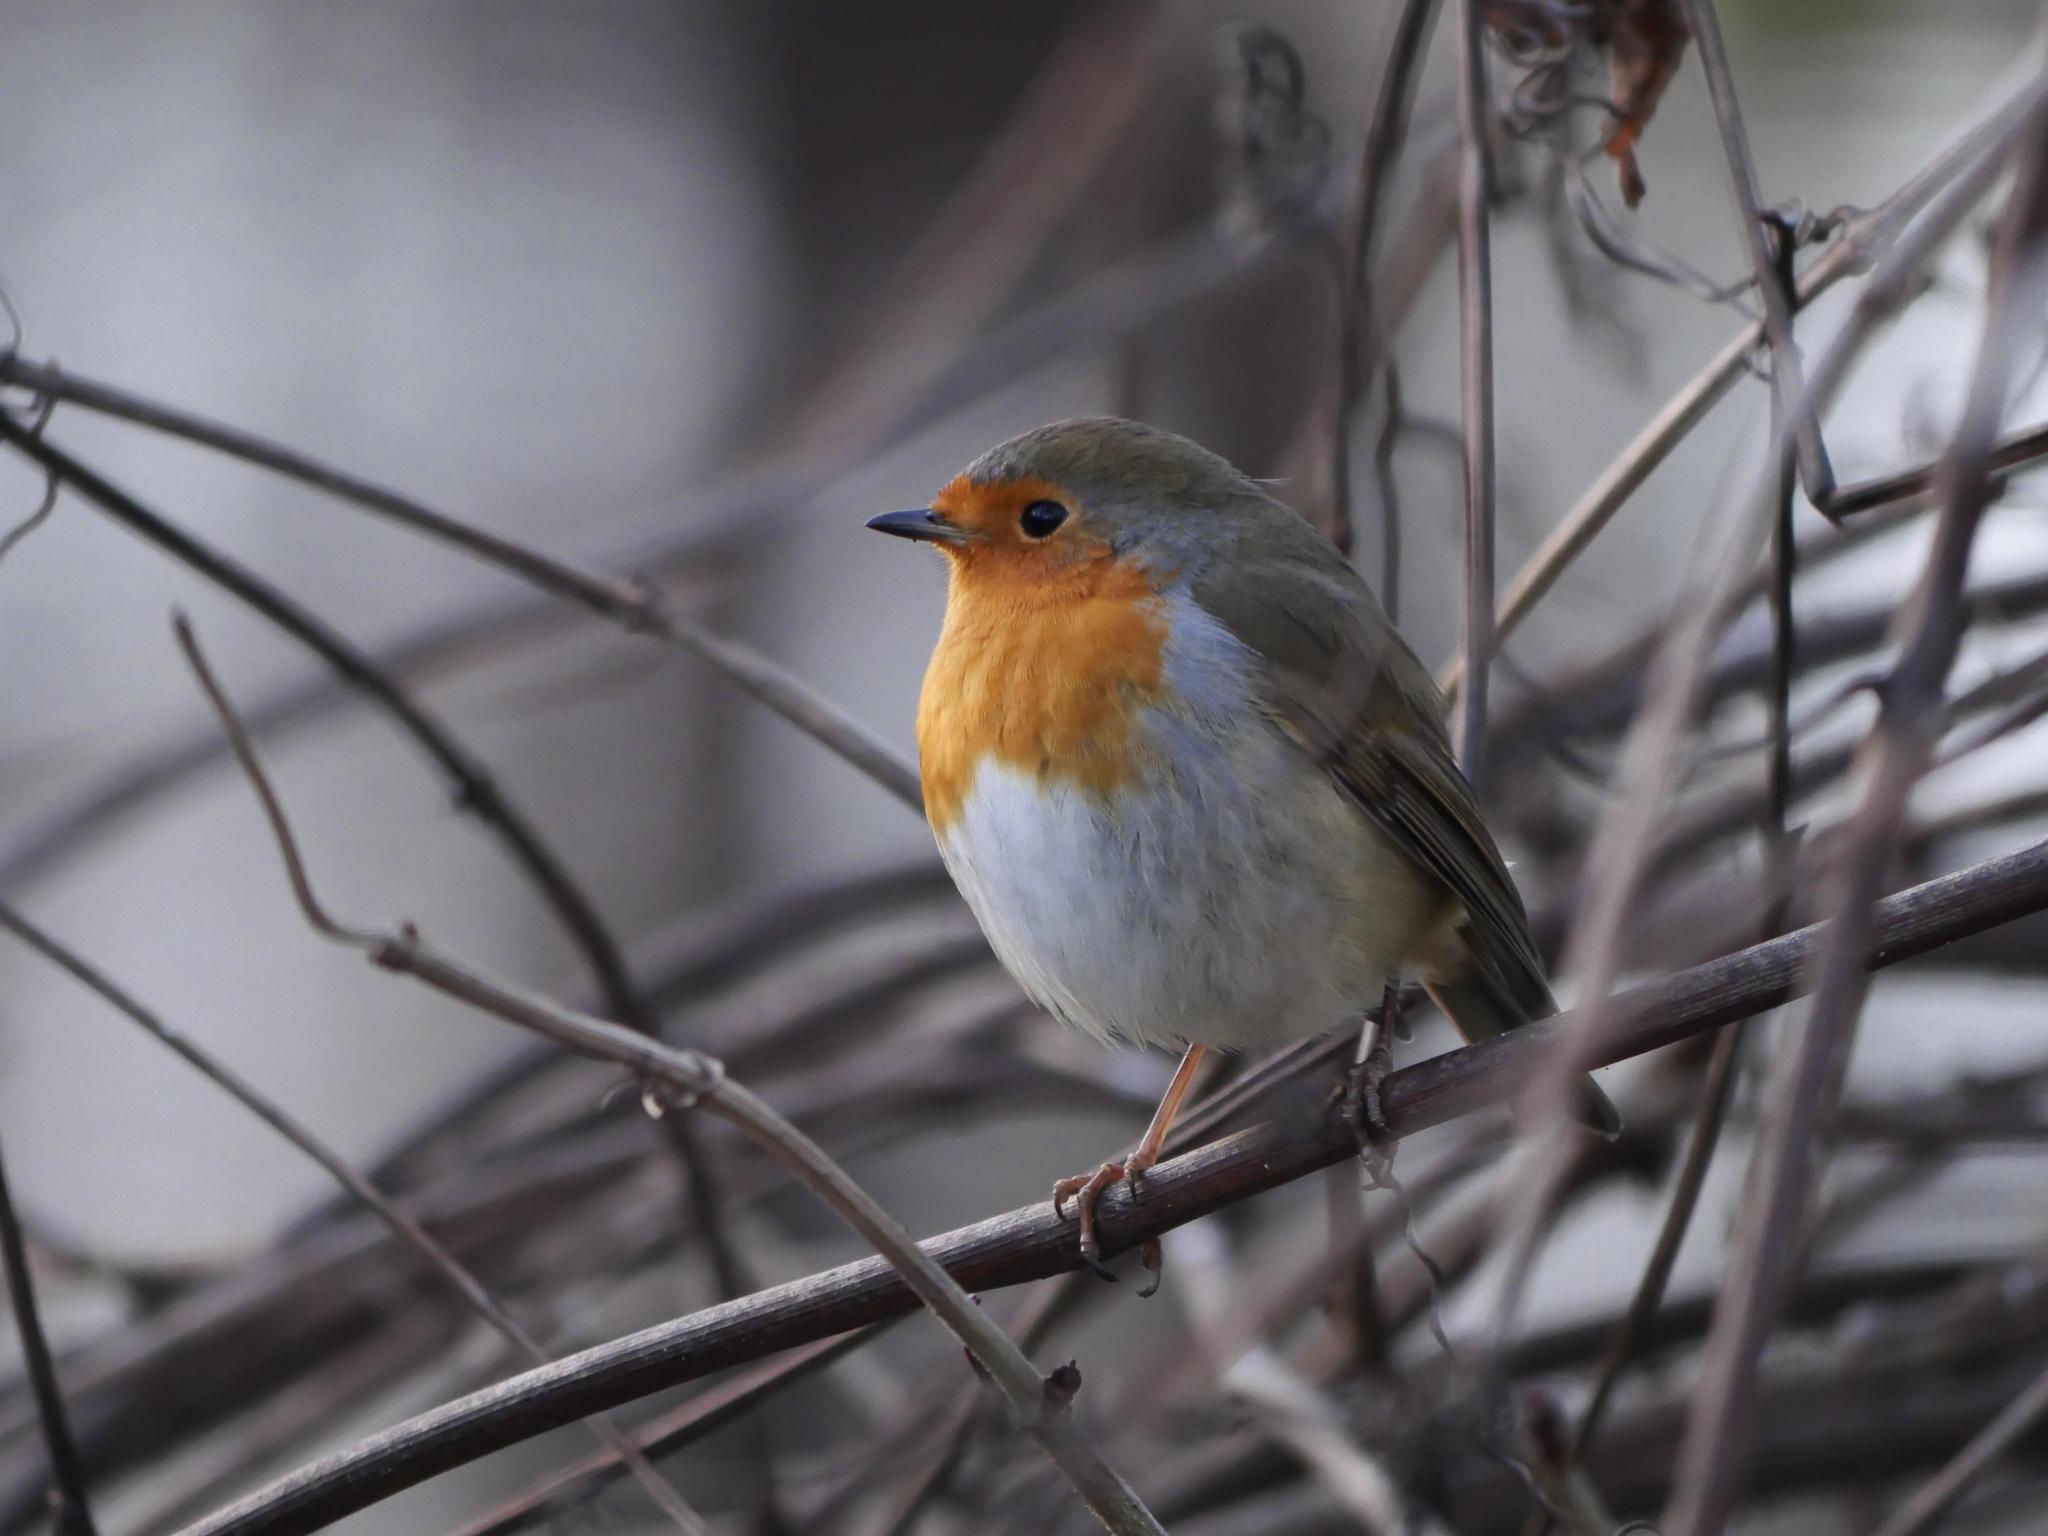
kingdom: Animalia
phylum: Chordata
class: Aves
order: Passeriformes
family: Muscicapidae
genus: Erithacus
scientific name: Erithacus rubecula
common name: European robin
